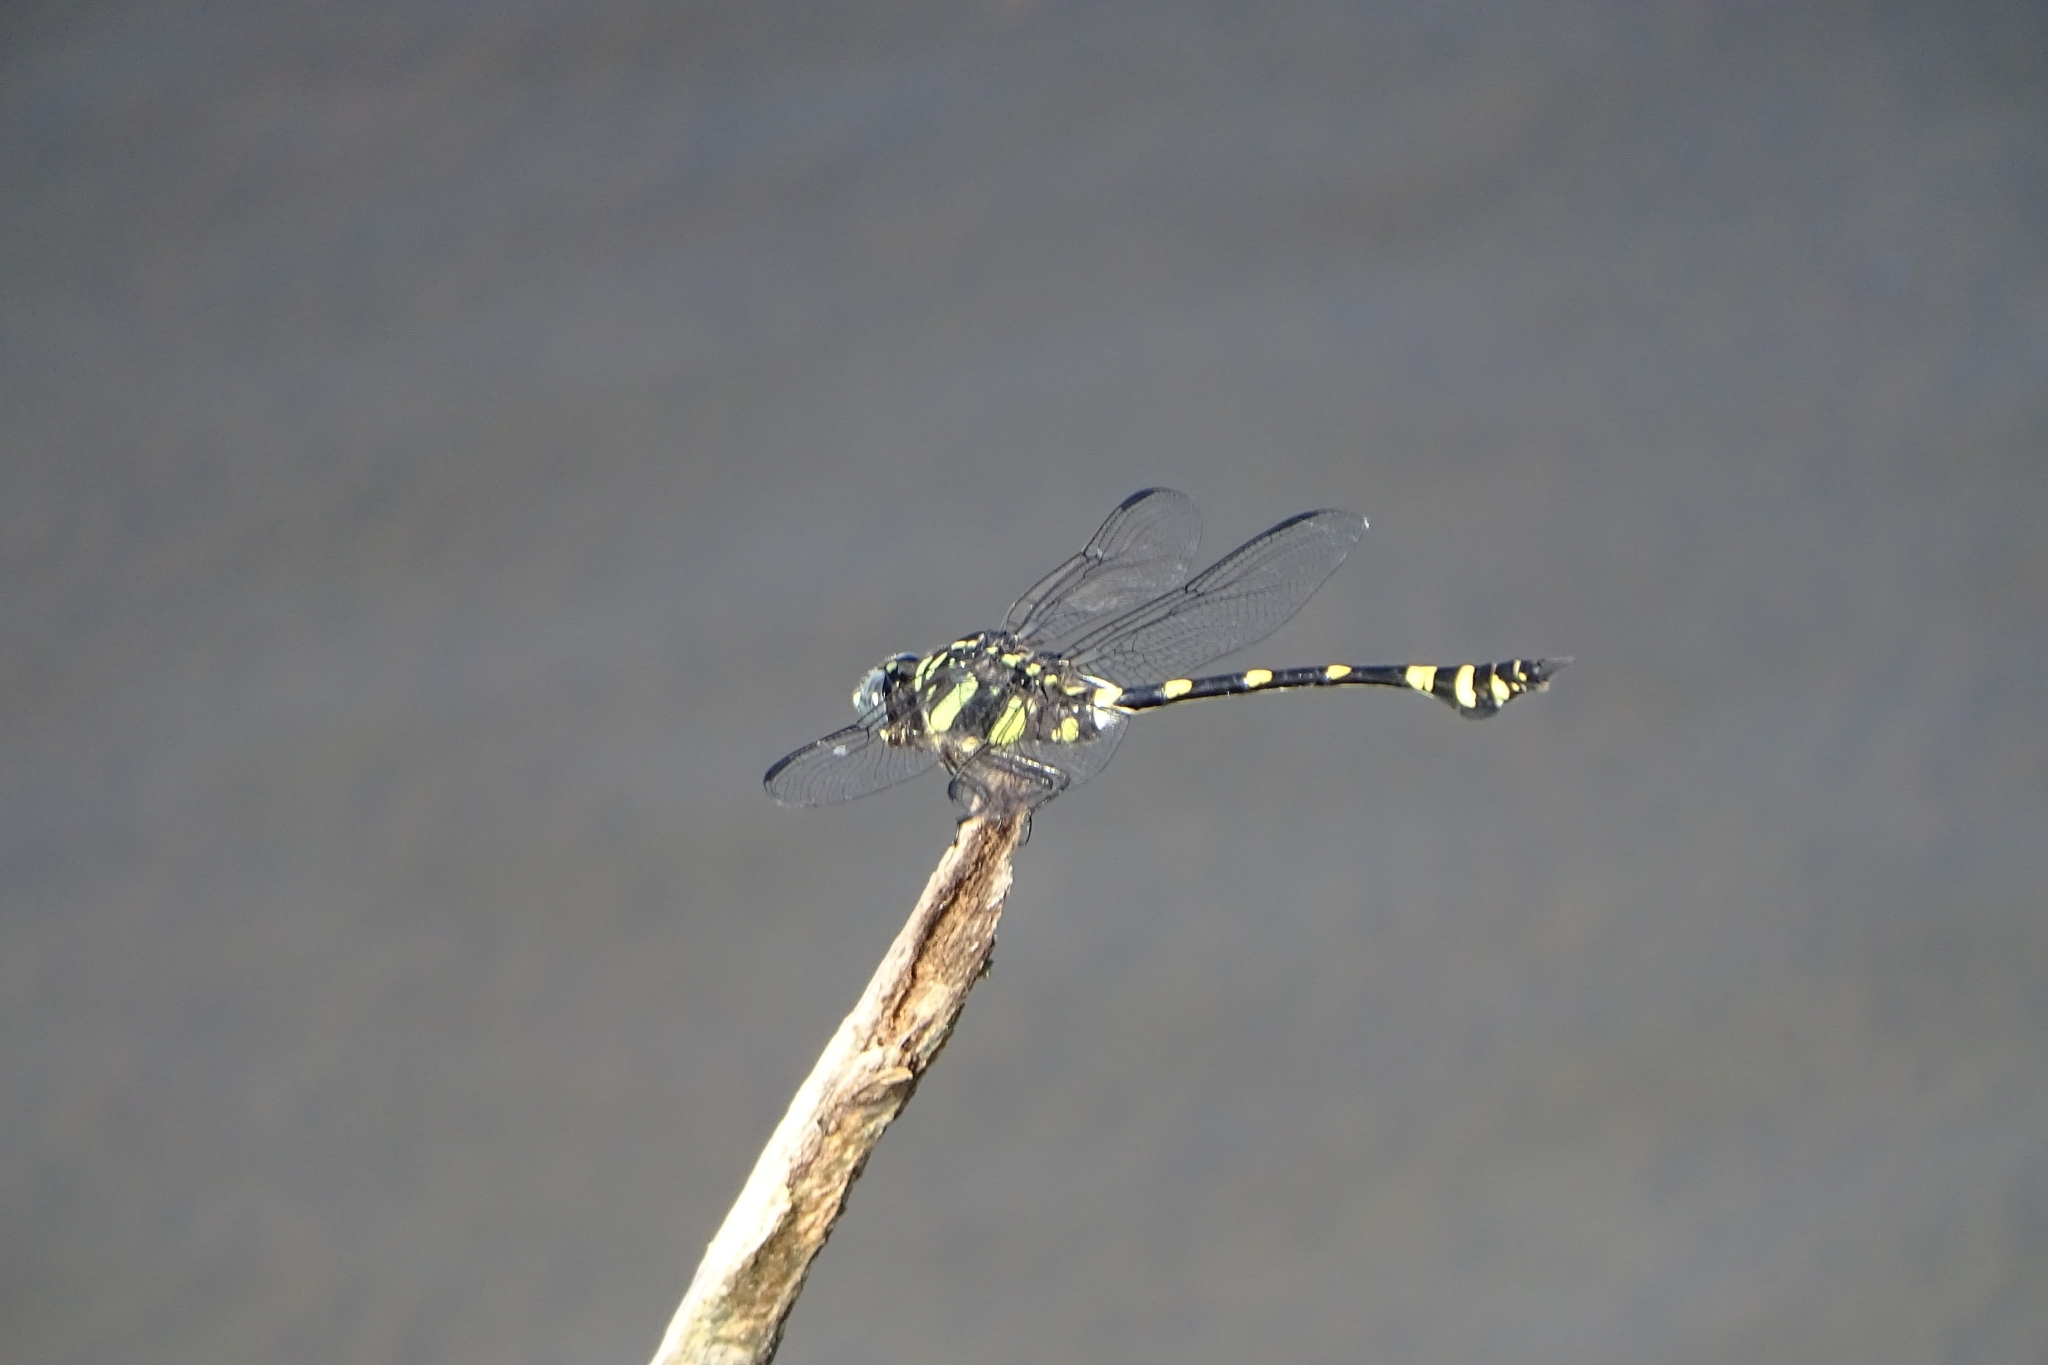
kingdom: Animalia
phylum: Arthropoda
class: Insecta
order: Odonata
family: Gomphidae
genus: Ictinogomphus
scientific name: Ictinogomphus rapax
